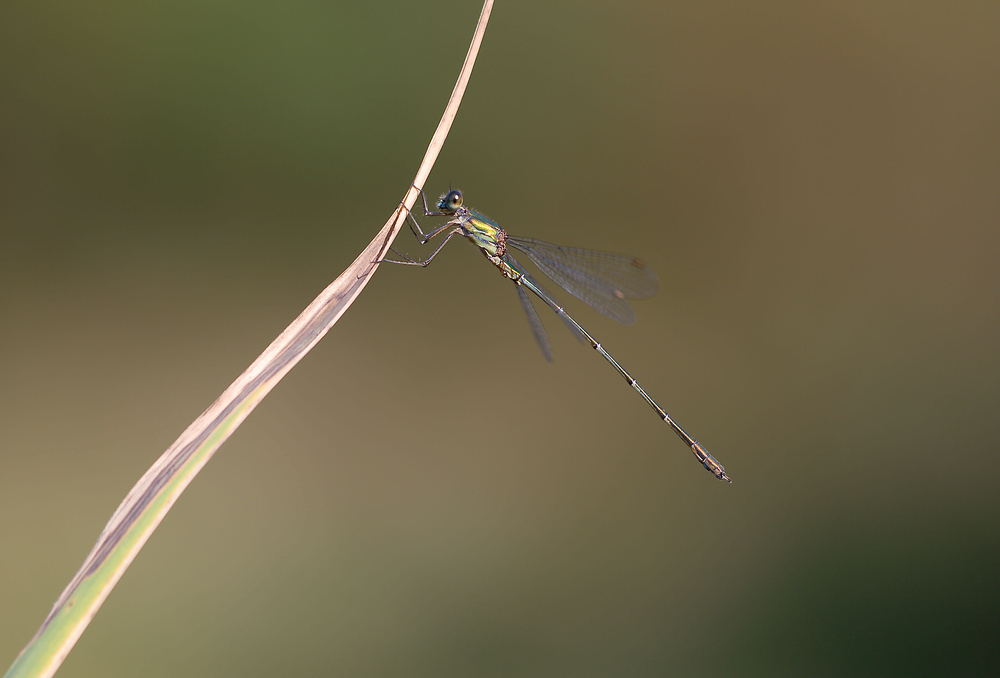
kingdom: Animalia
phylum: Arthropoda
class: Insecta
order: Odonata
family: Lestidae
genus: Chalcolestes
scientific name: Chalcolestes viridis
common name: Green emerald damselfly
